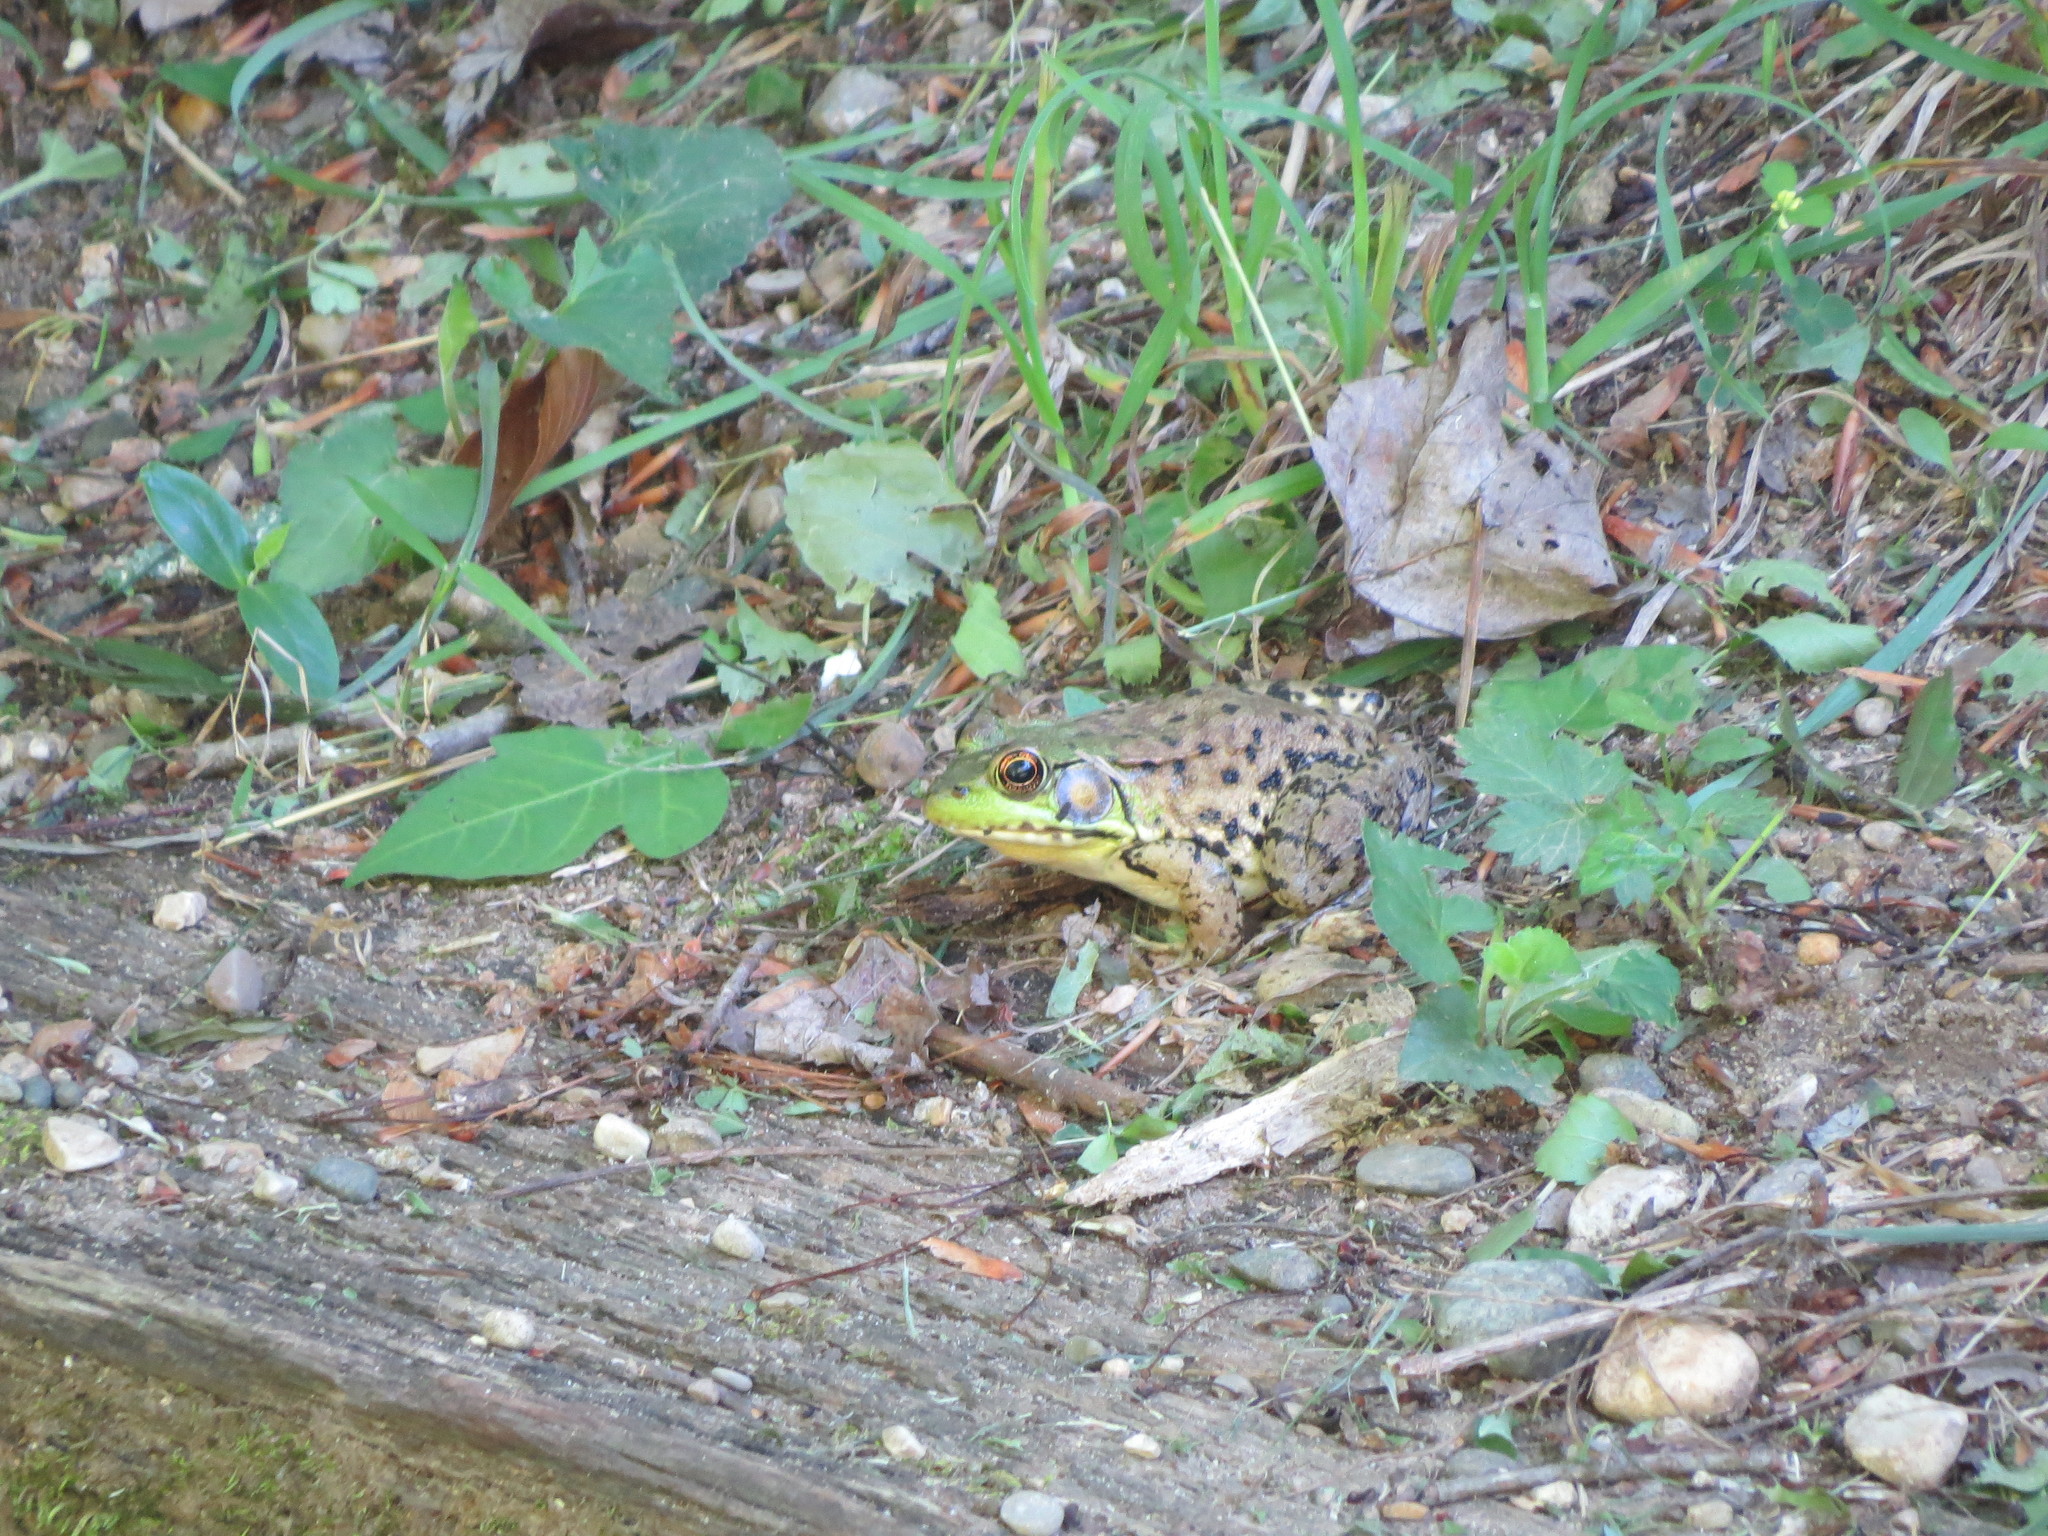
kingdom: Animalia
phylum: Chordata
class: Amphibia
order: Anura
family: Ranidae
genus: Lithobates
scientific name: Lithobates clamitans
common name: Green frog
